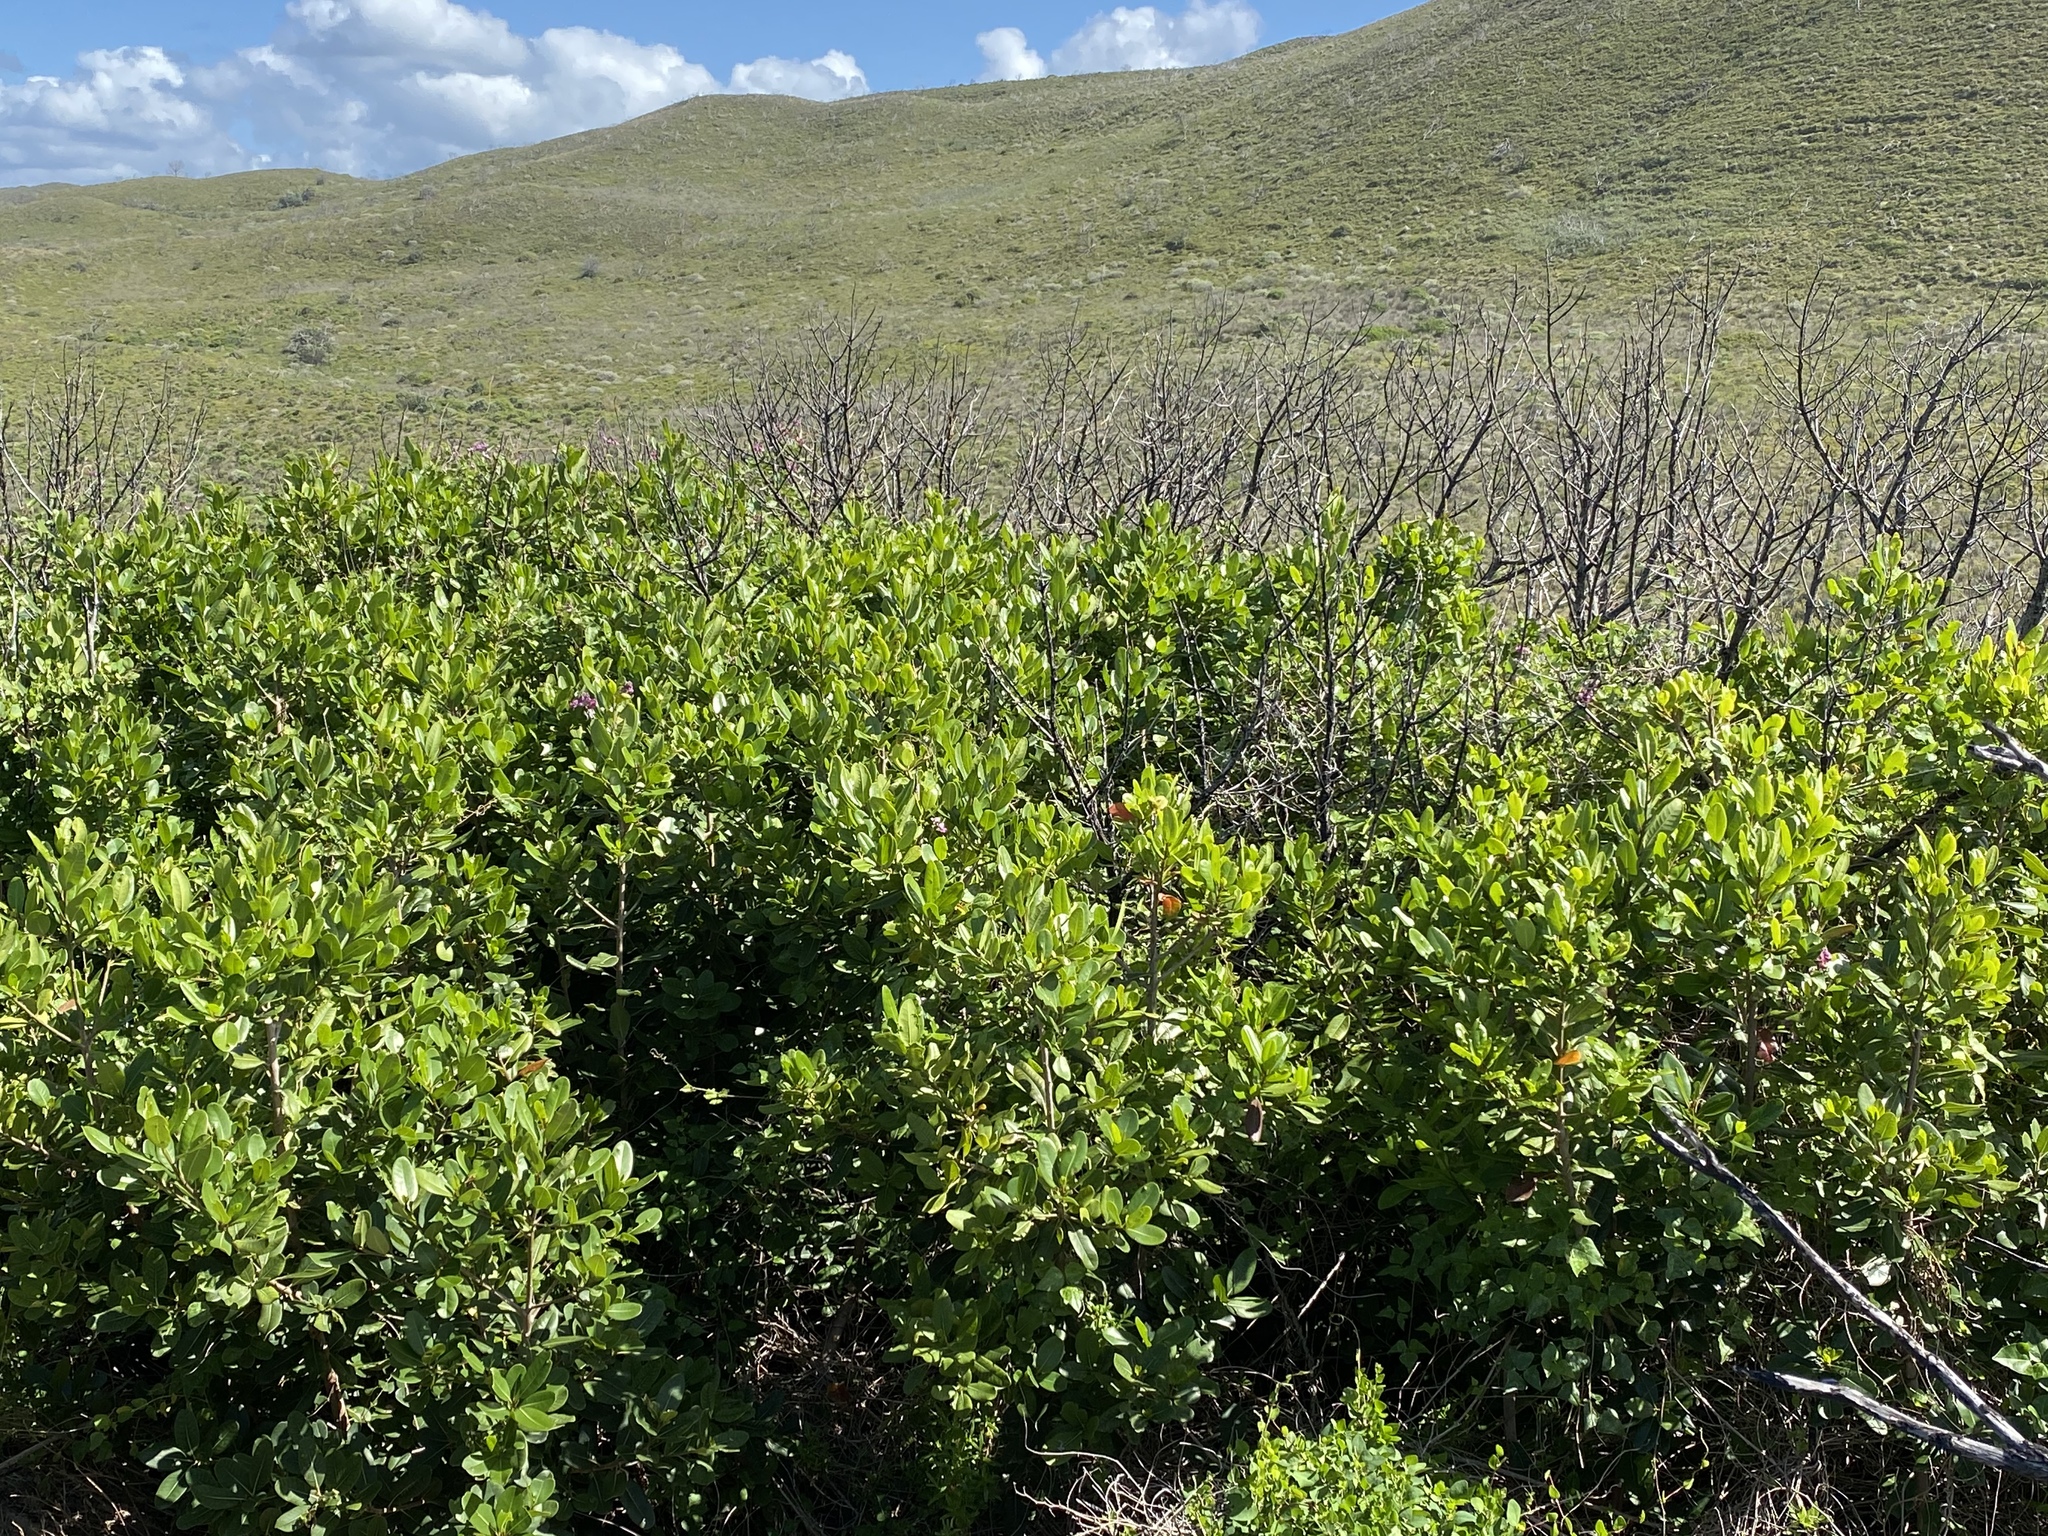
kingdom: Plantae
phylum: Tracheophyta
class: Magnoliopsida
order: Ericales
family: Sapotaceae
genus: Sideroxylon
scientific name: Sideroxylon inerme
